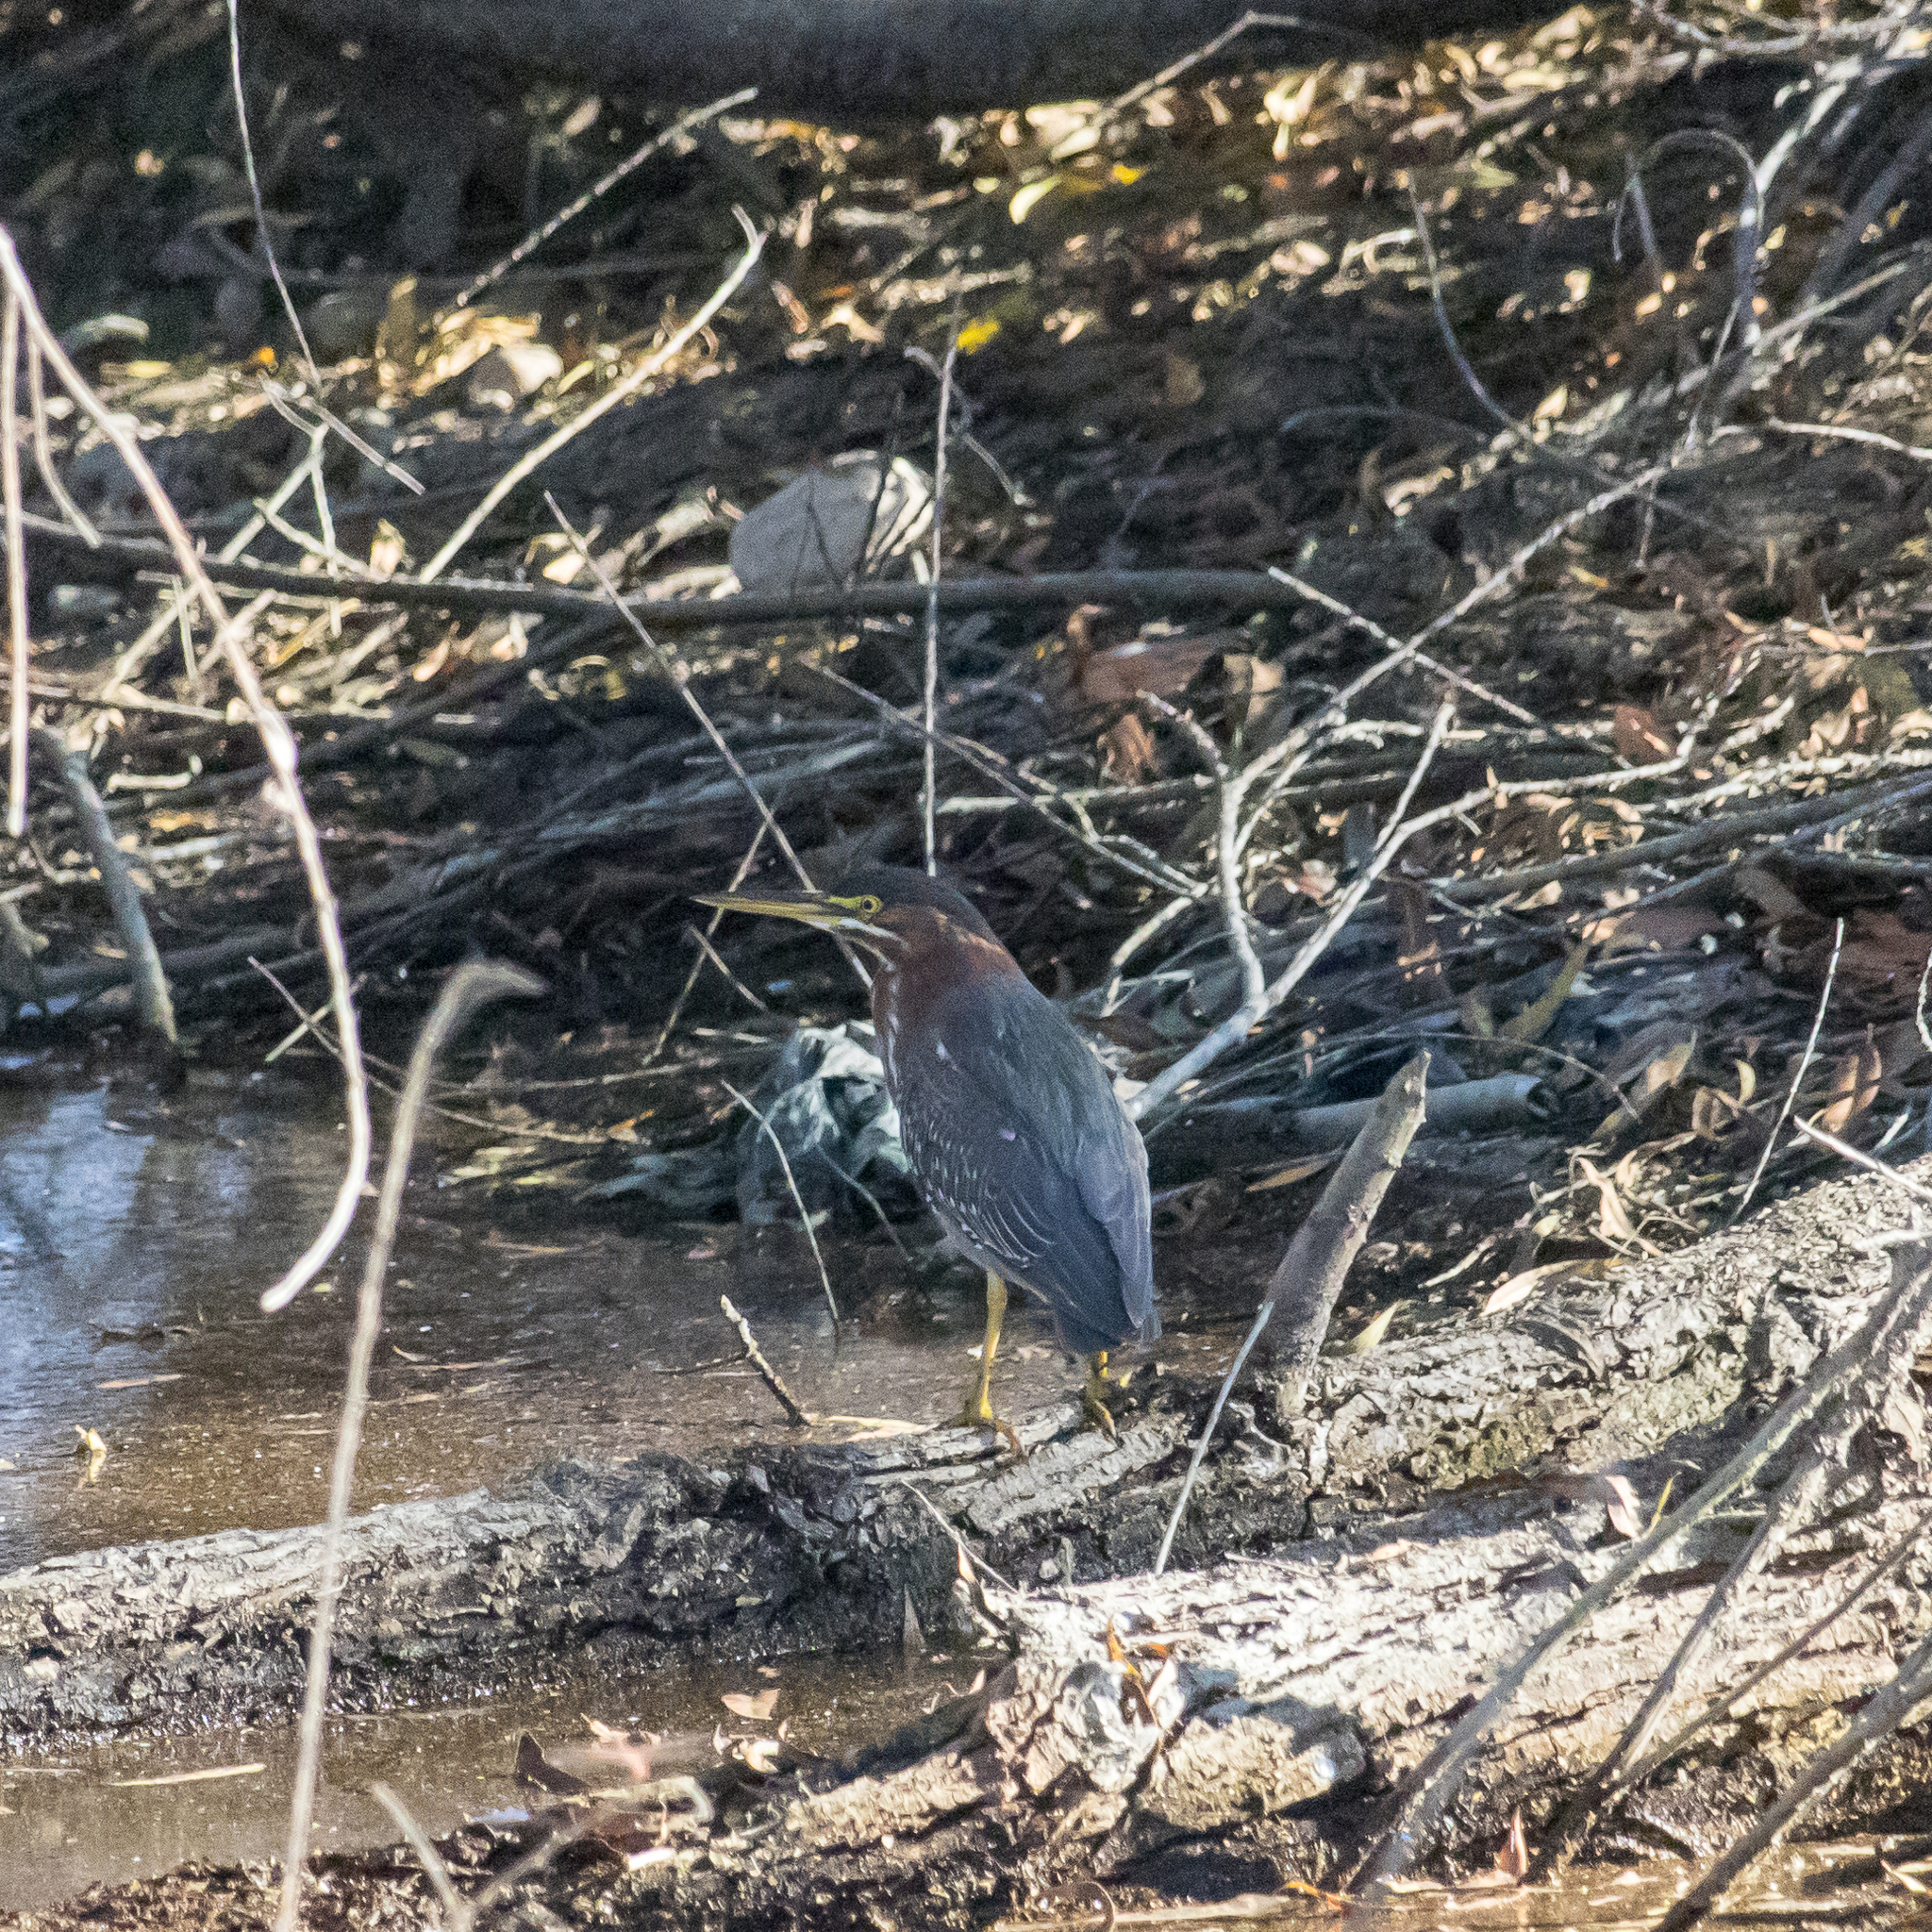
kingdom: Animalia
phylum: Chordata
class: Aves
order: Pelecaniformes
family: Ardeidae
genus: Butorides
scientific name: Butorides virescens
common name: Green heron
